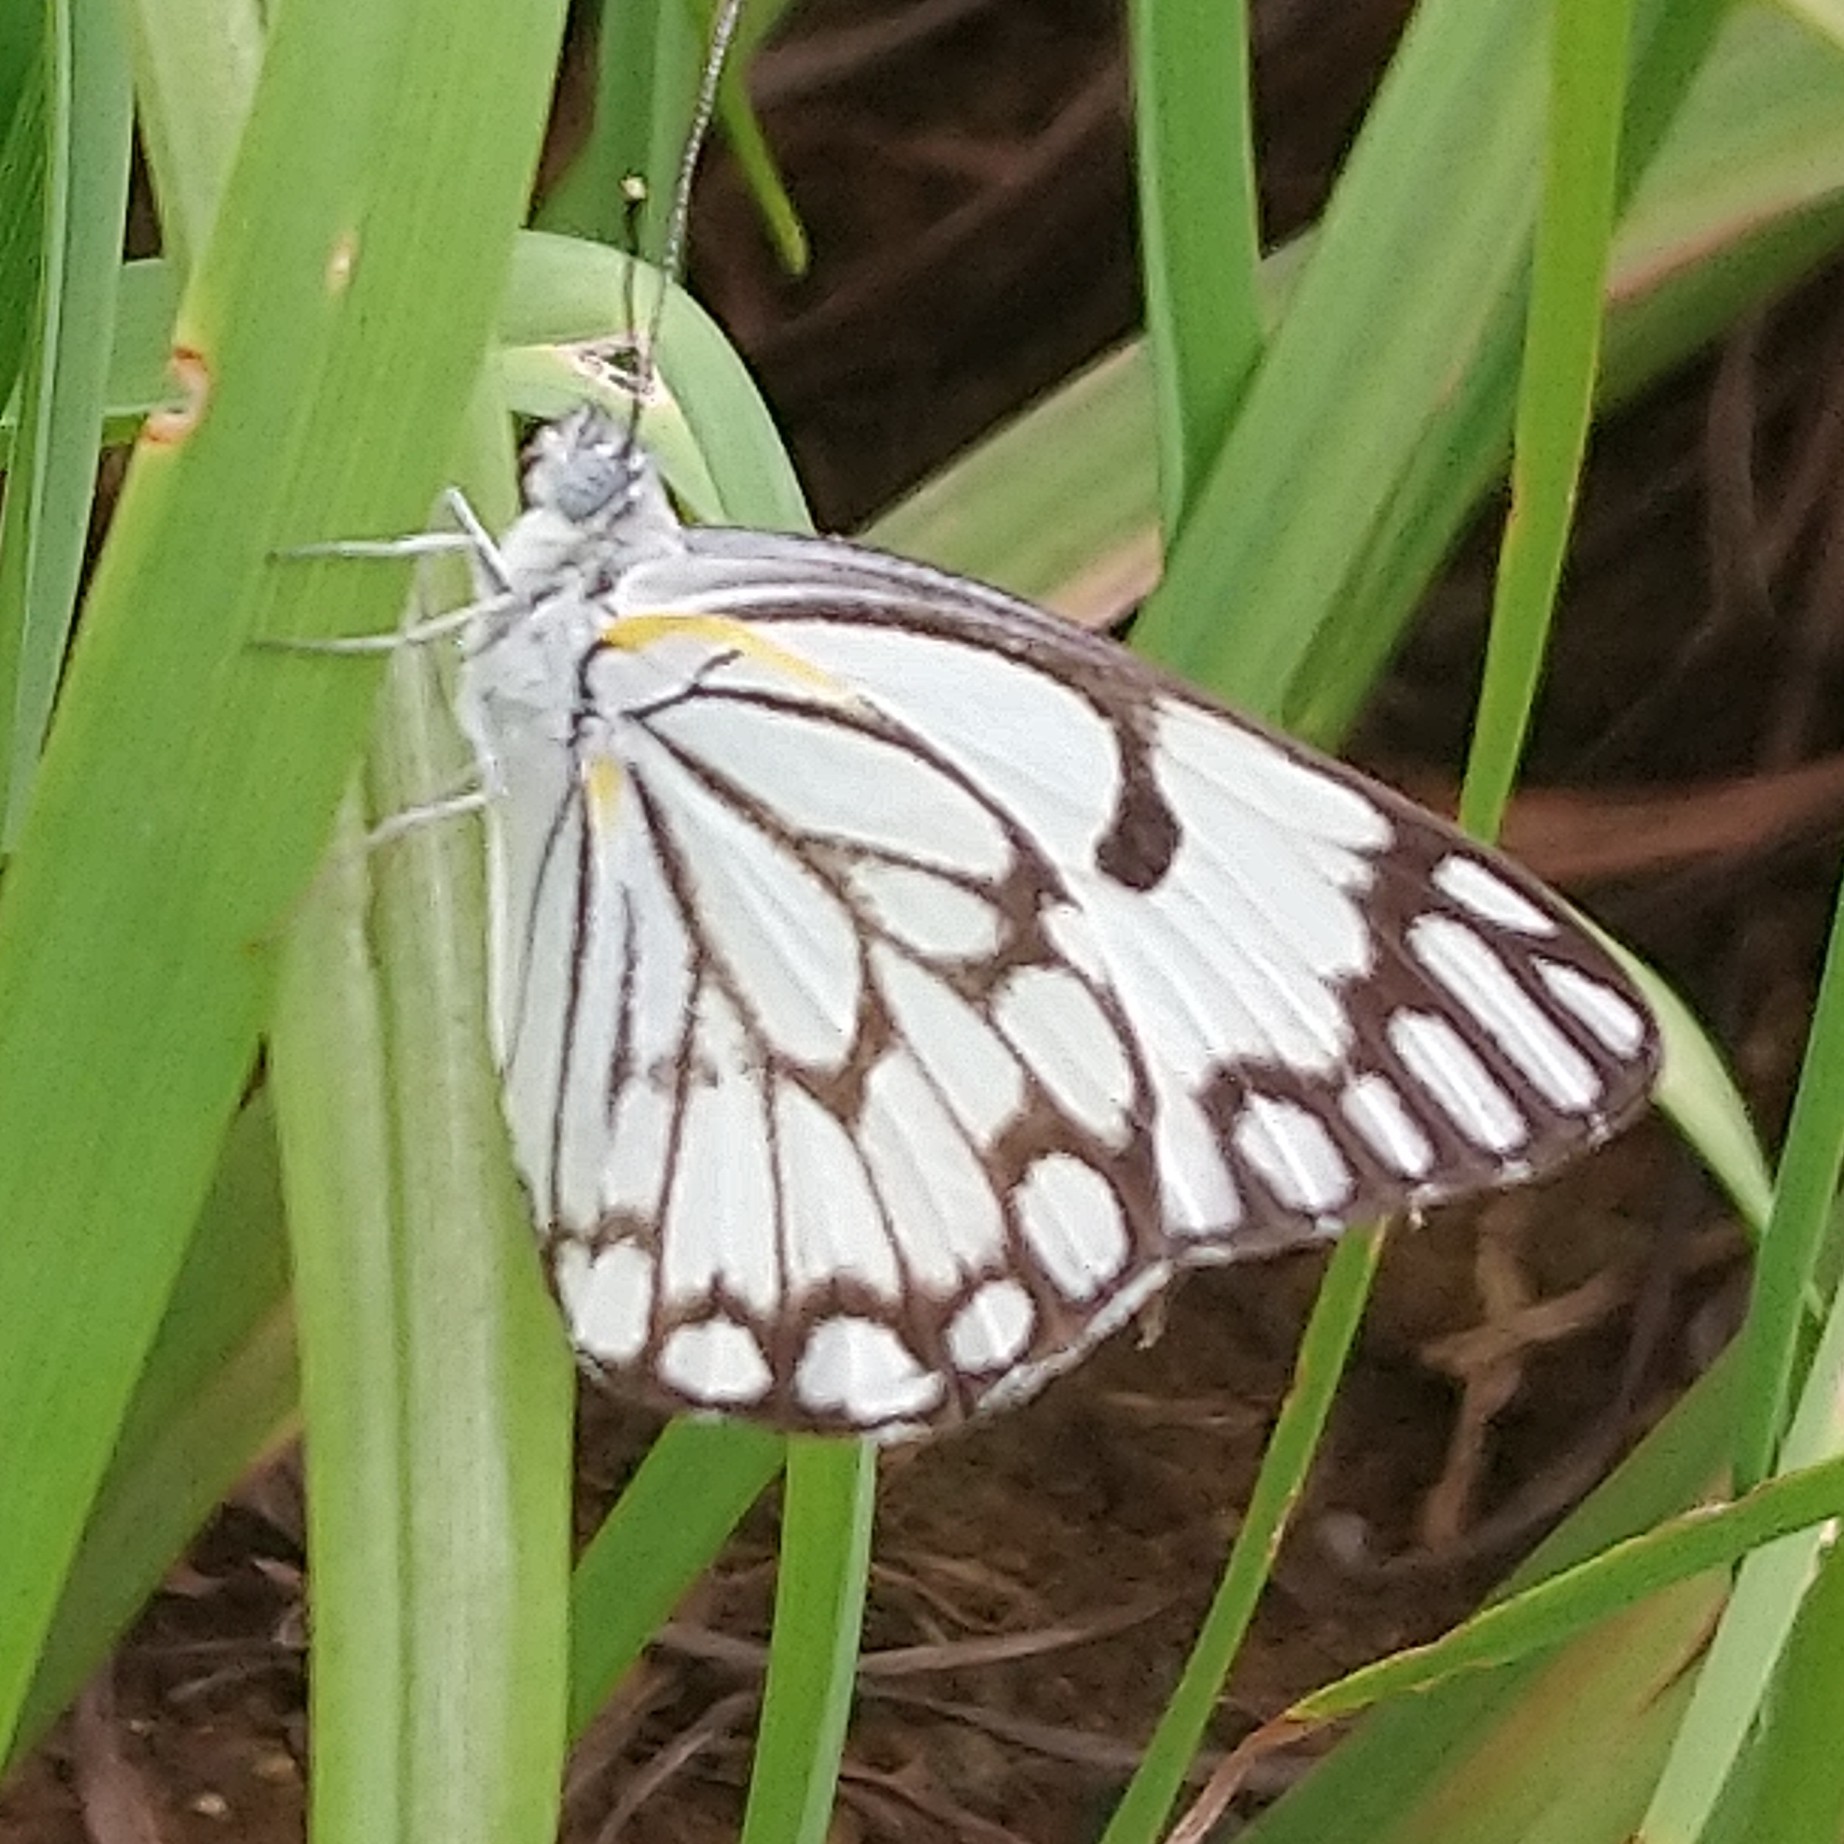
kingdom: Animalia
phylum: Arthropoda
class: Insecta
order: Lepidoptera
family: Pieridae
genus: Belenois
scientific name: Belenois aurota
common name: Brown-veined white
